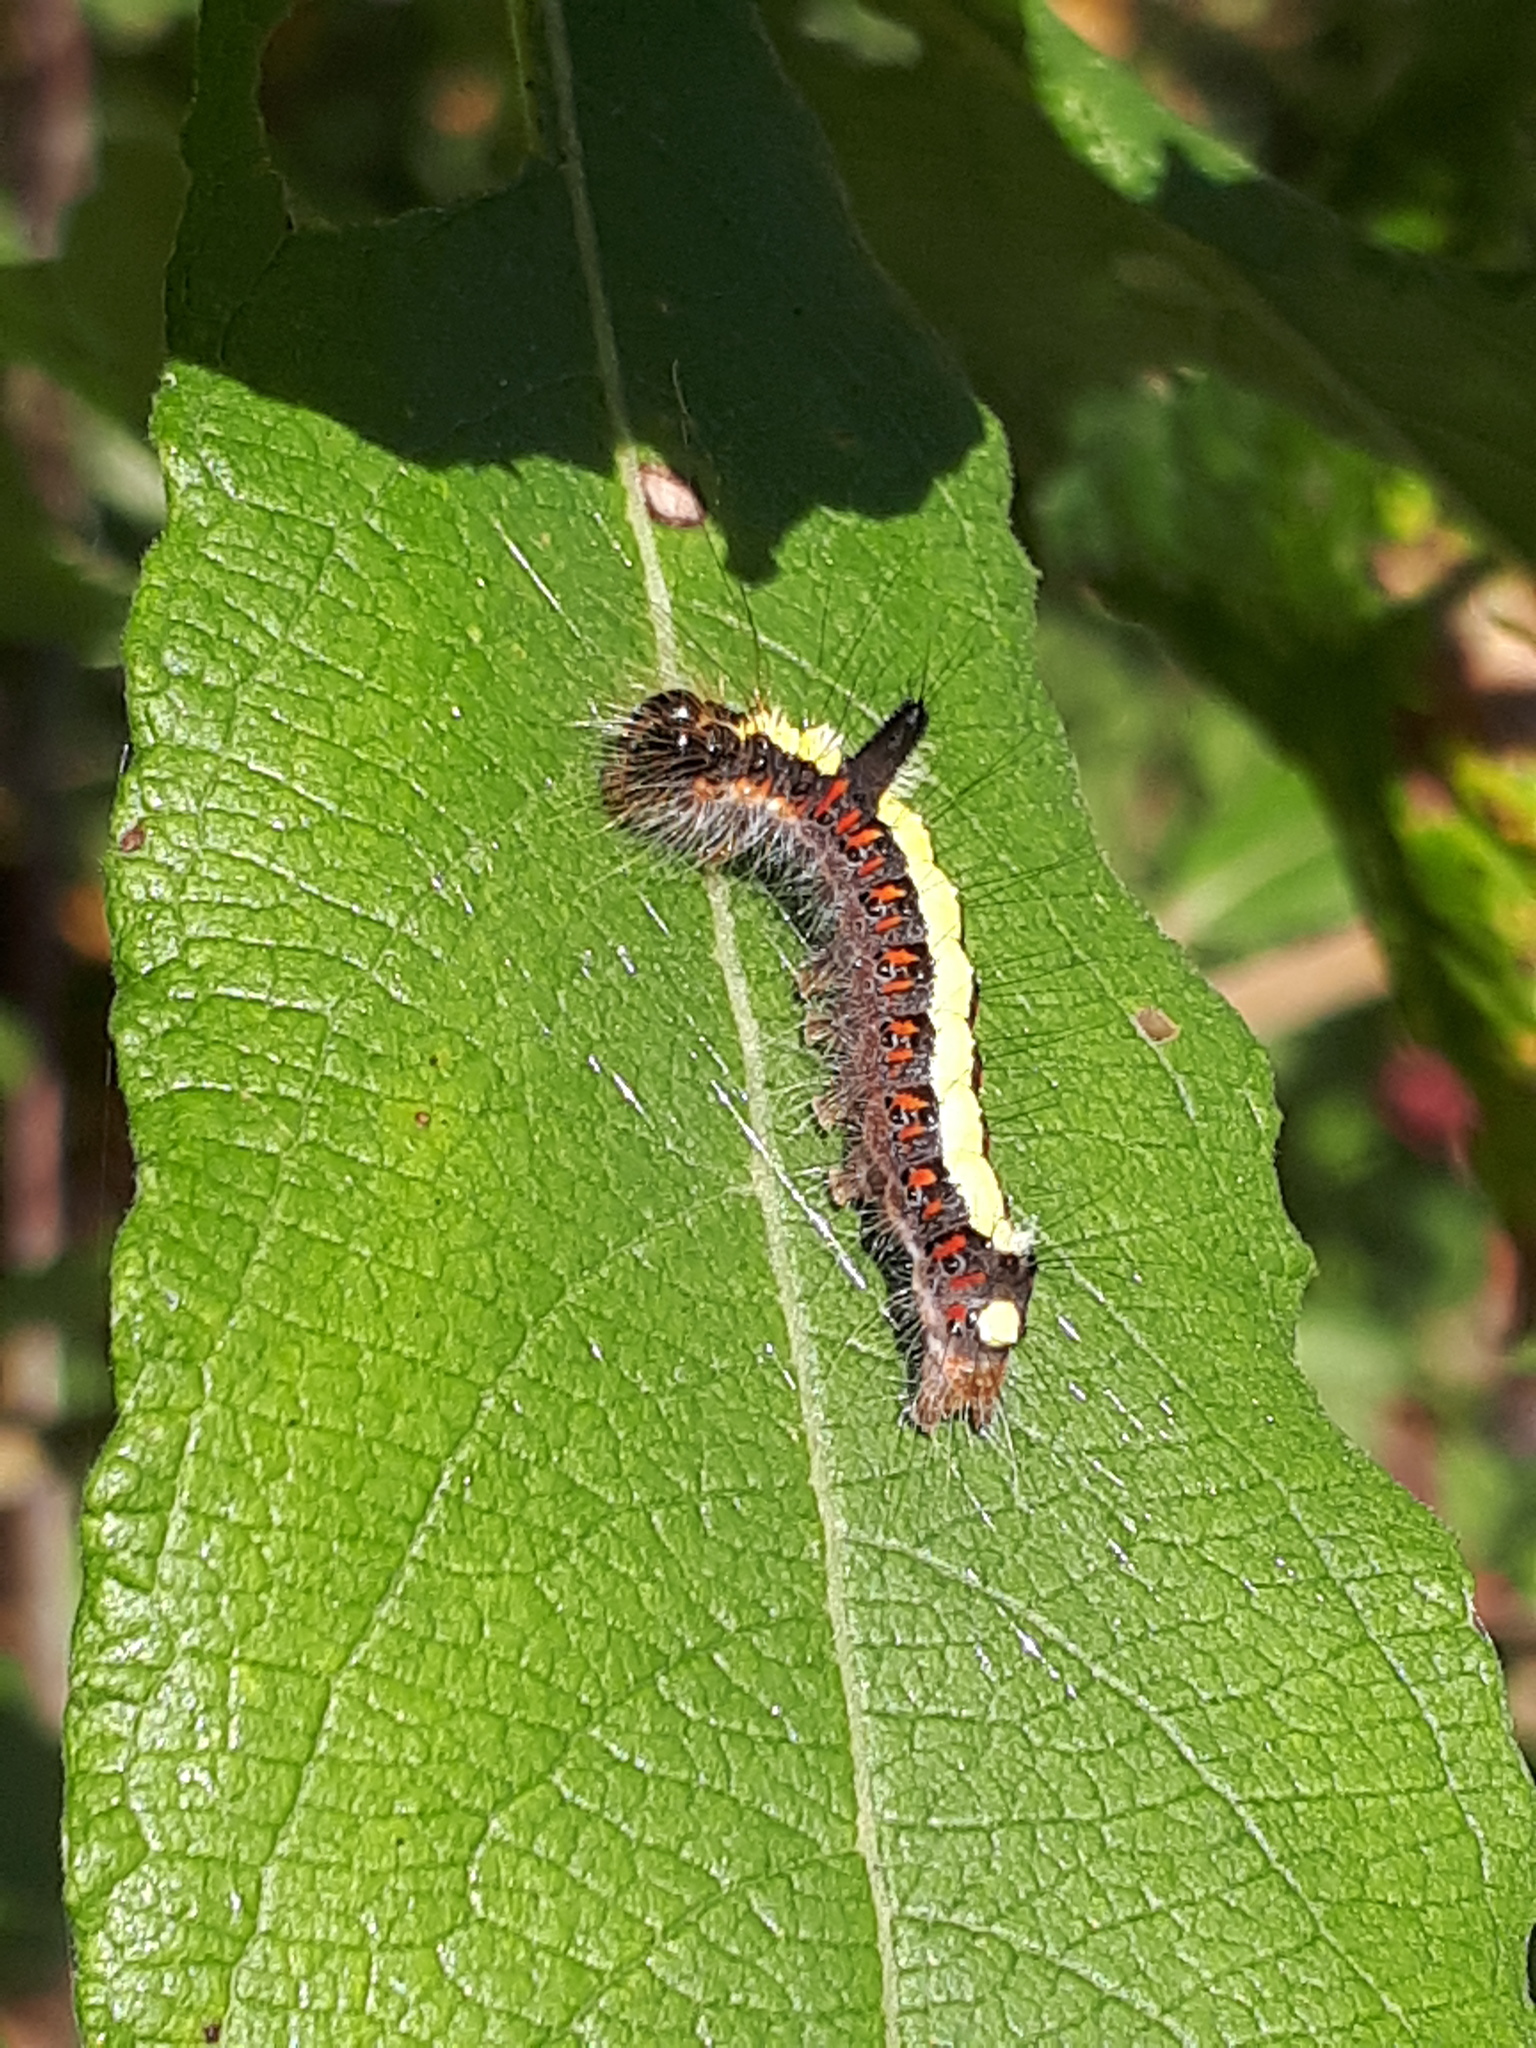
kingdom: Animalia
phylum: Arthropoda
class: Insecta
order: Lepidoptera
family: Noctuidae
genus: Acronicta
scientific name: Acronicta psi
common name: Grey dagger
